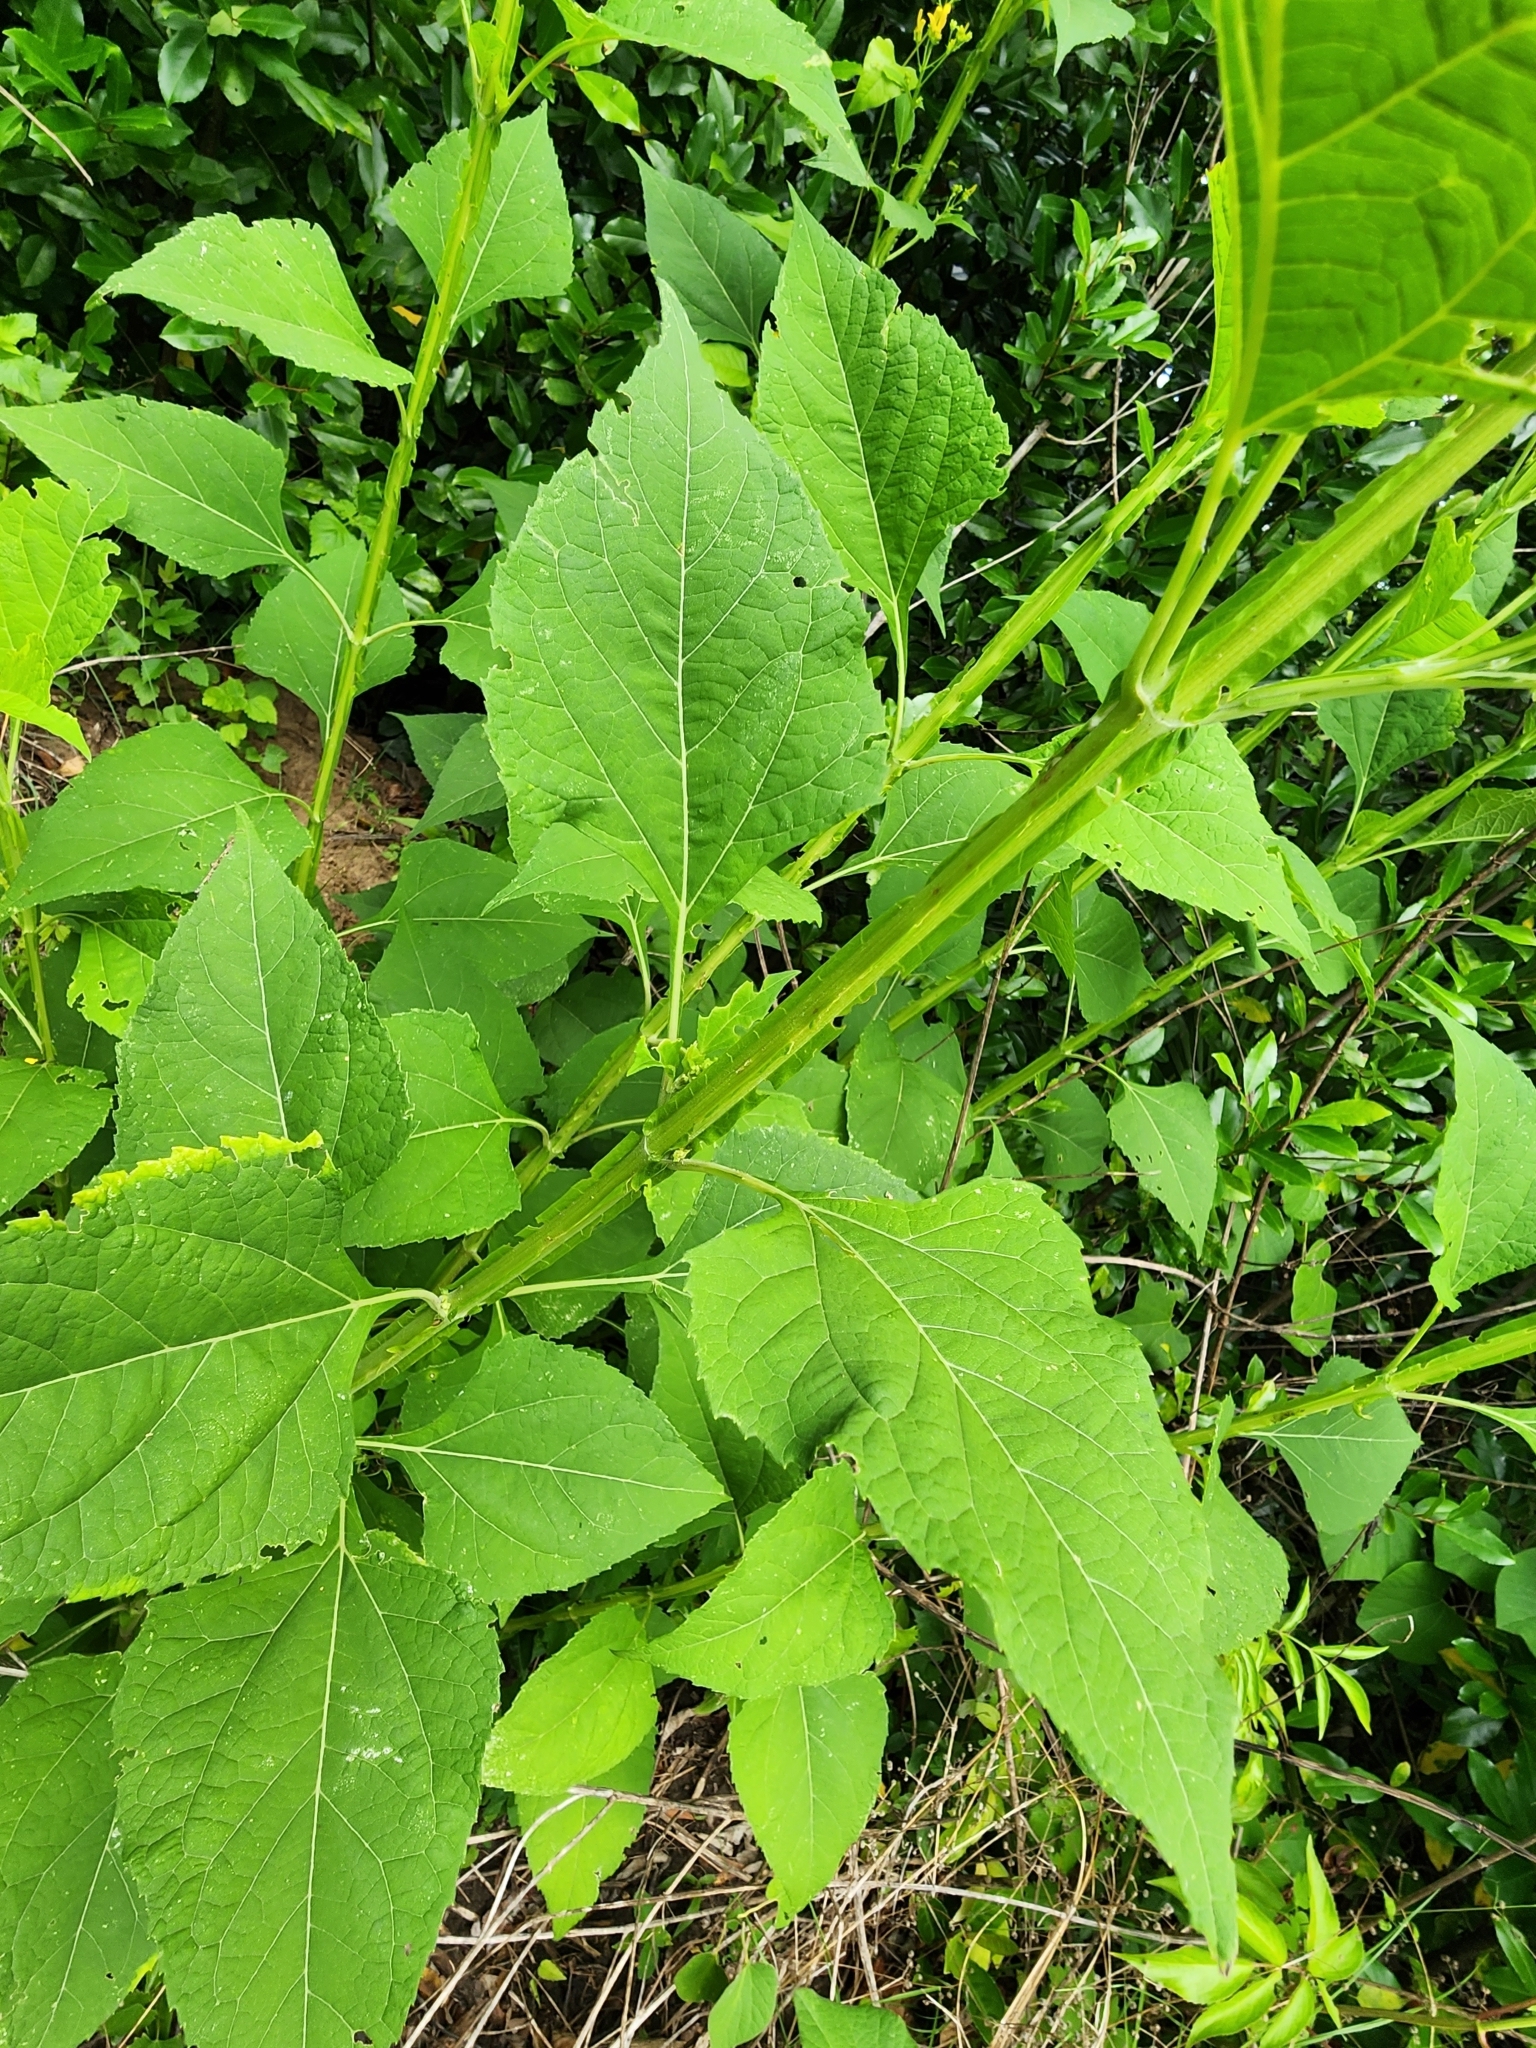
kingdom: Plantae
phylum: Tracheophyta
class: Magnoliopsida
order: Asterales
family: Asteraceae
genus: Verbesina
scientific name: Verbesina occidentalis
